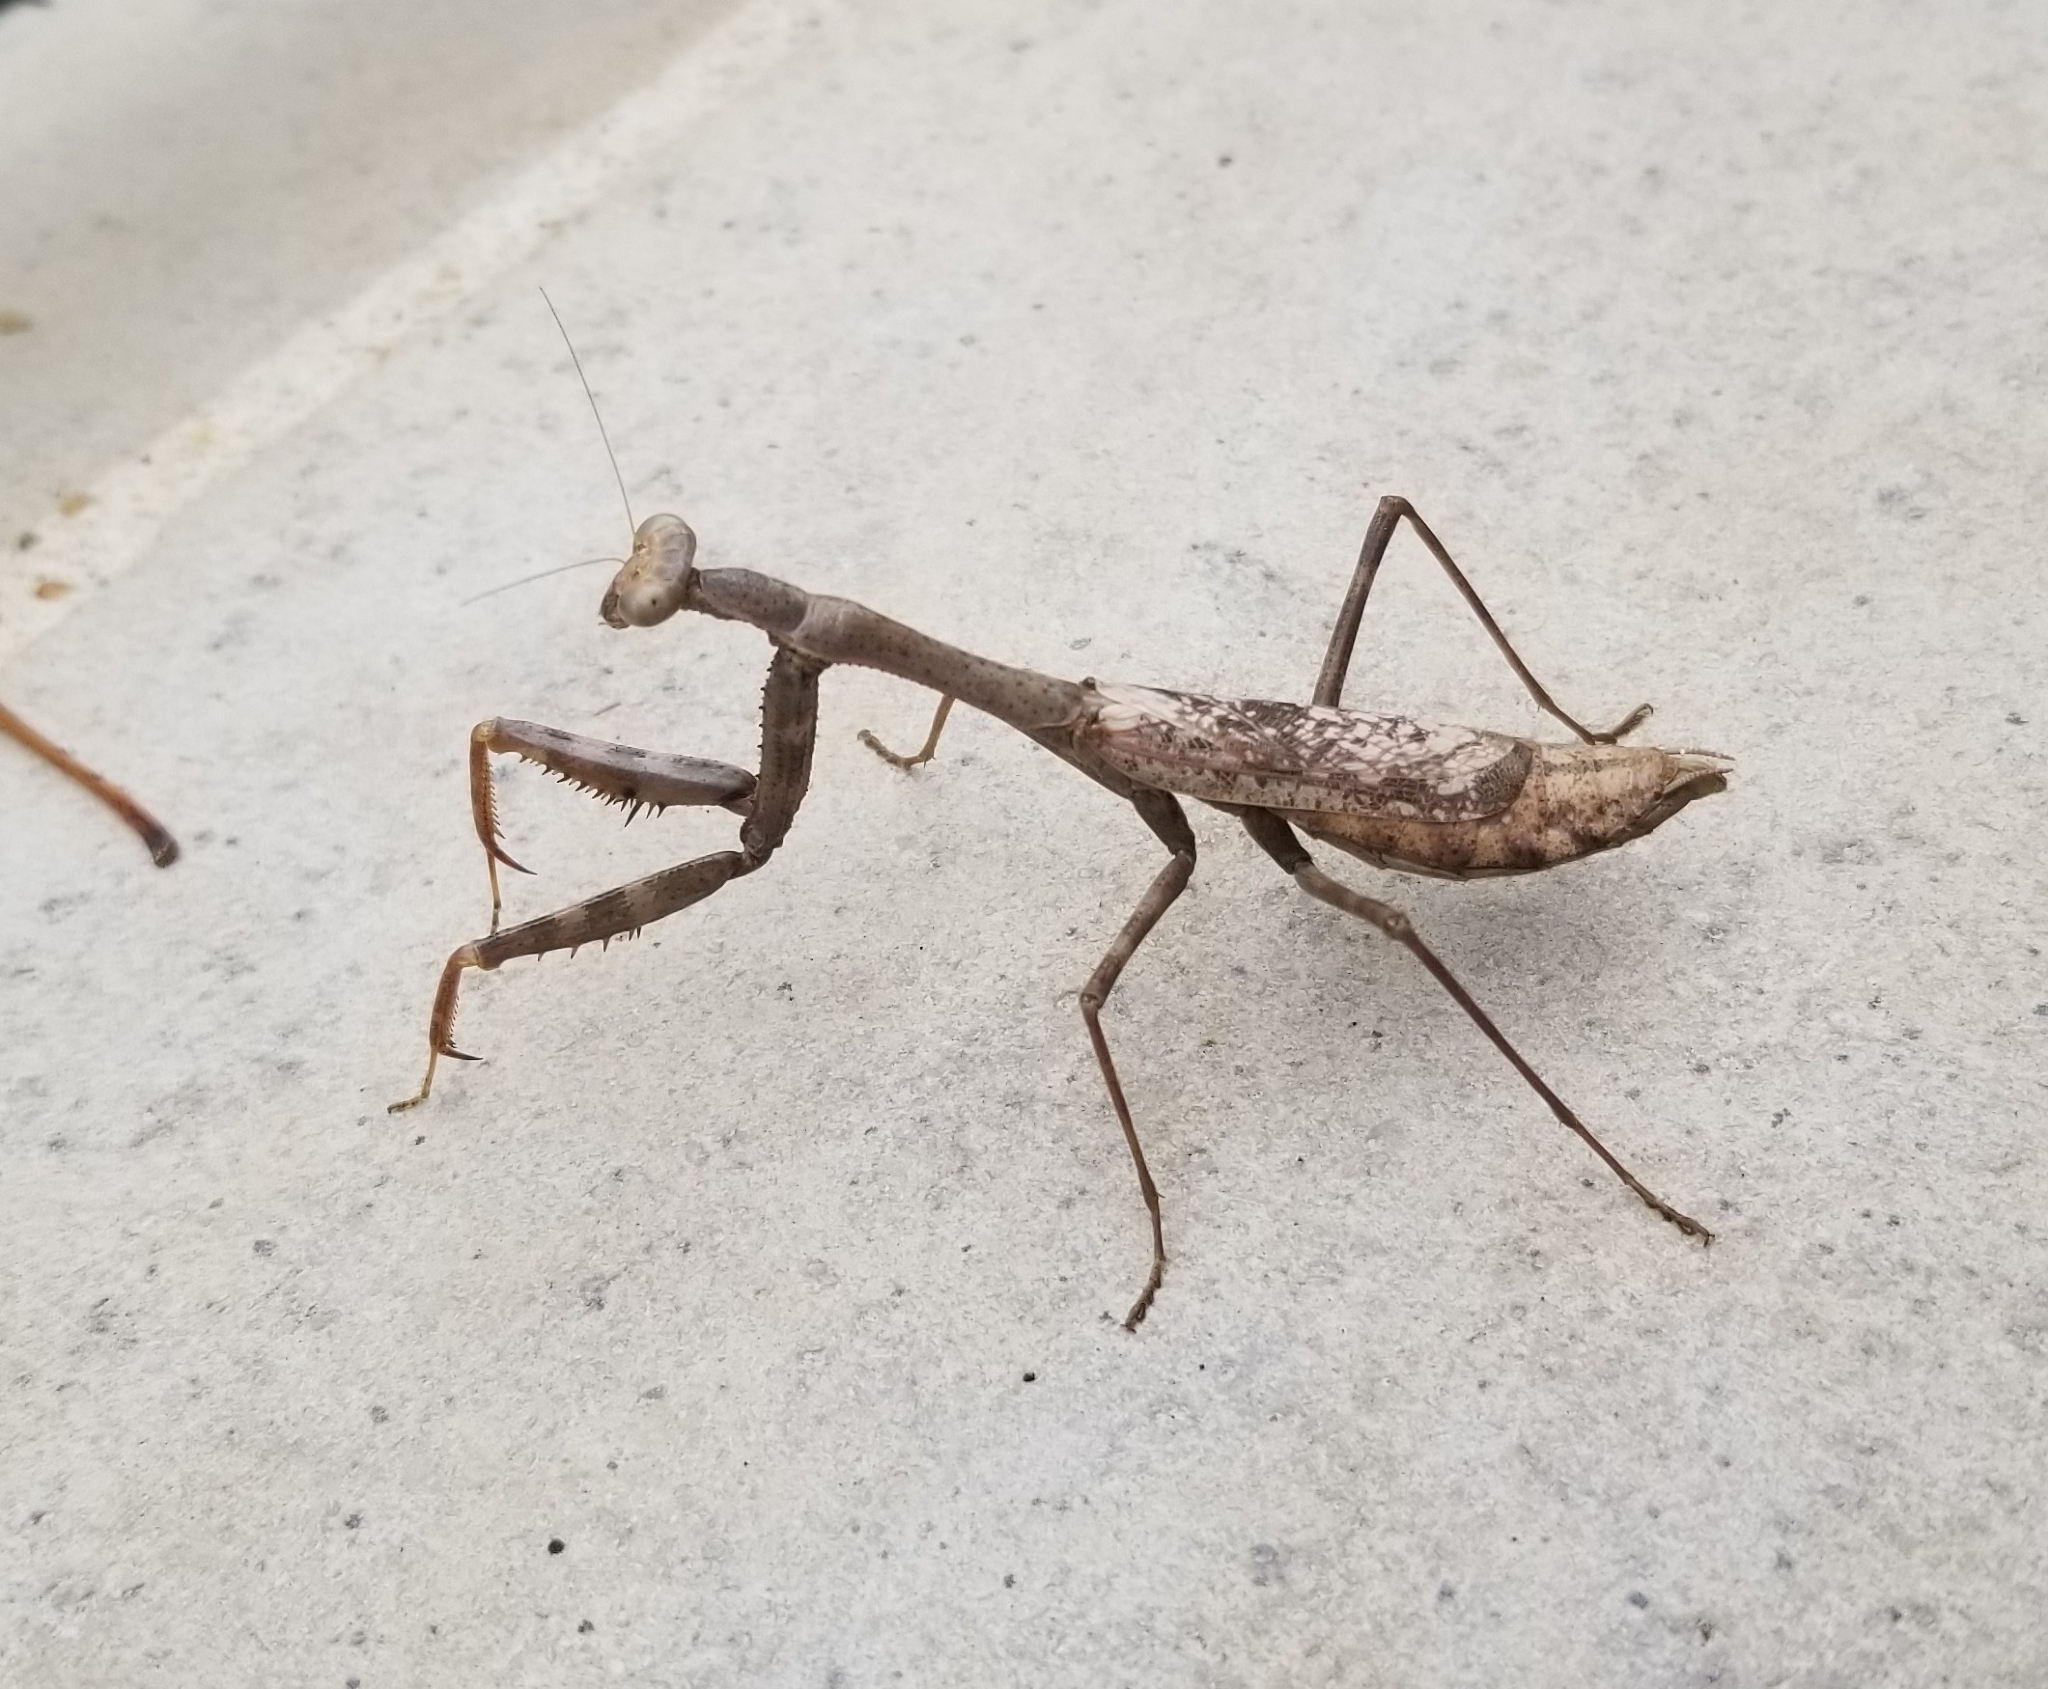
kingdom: Animalia
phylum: Arthropoda
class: Insecta
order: Mantodea
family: Mantidae
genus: Stagmomantis
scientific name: Stagmomantis carolina
